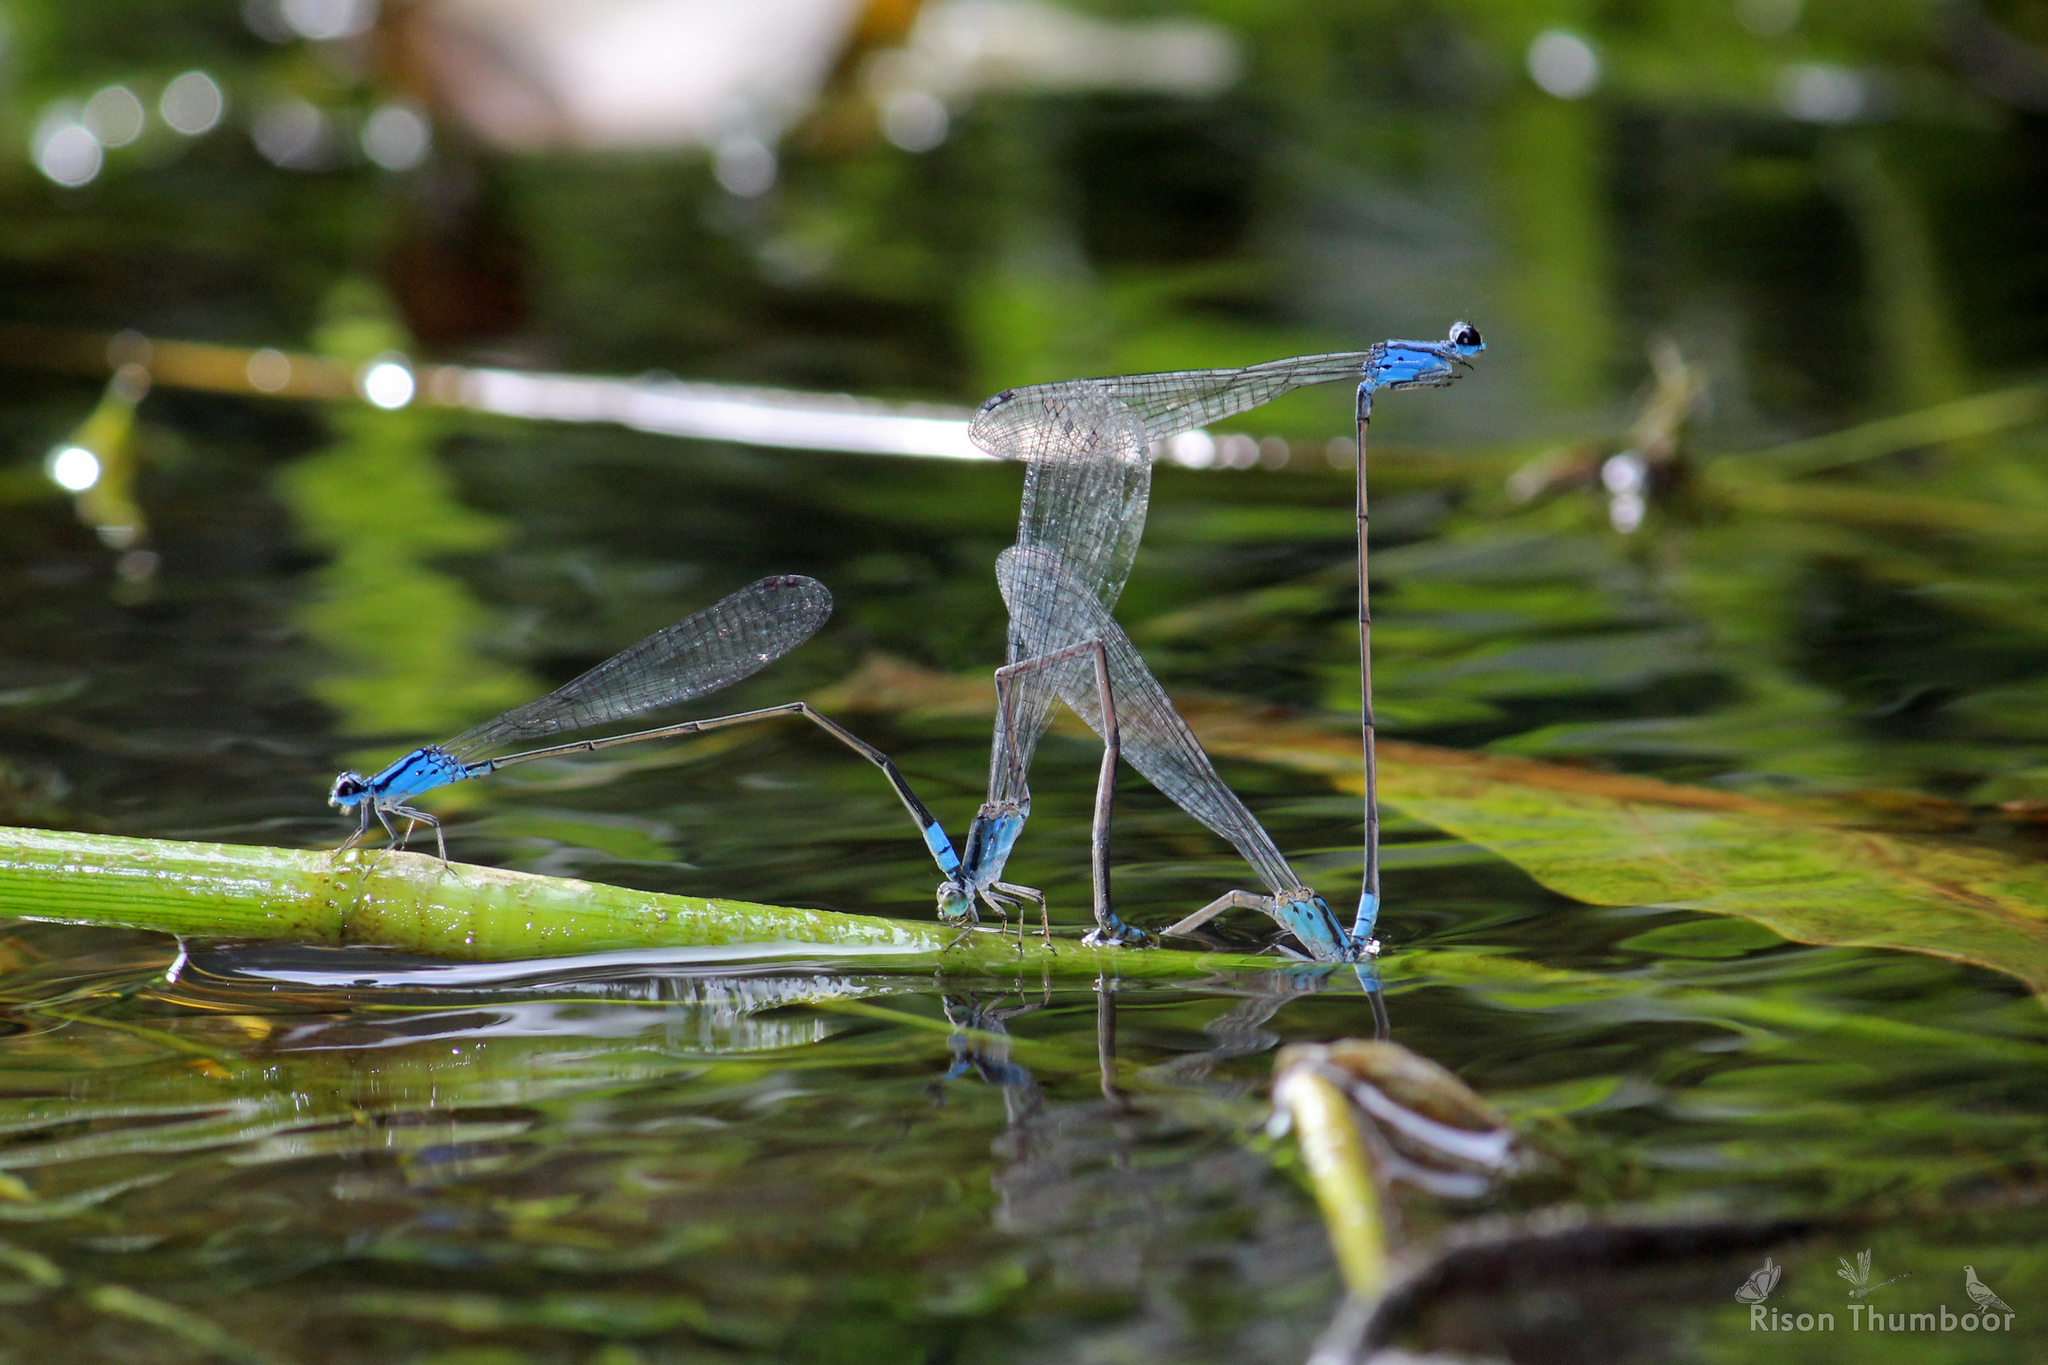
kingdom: Animalia
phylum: Arthropoda
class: Insecta
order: Odonata
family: Coenagrionidae
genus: Archibasis
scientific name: Archibasis oscillans
